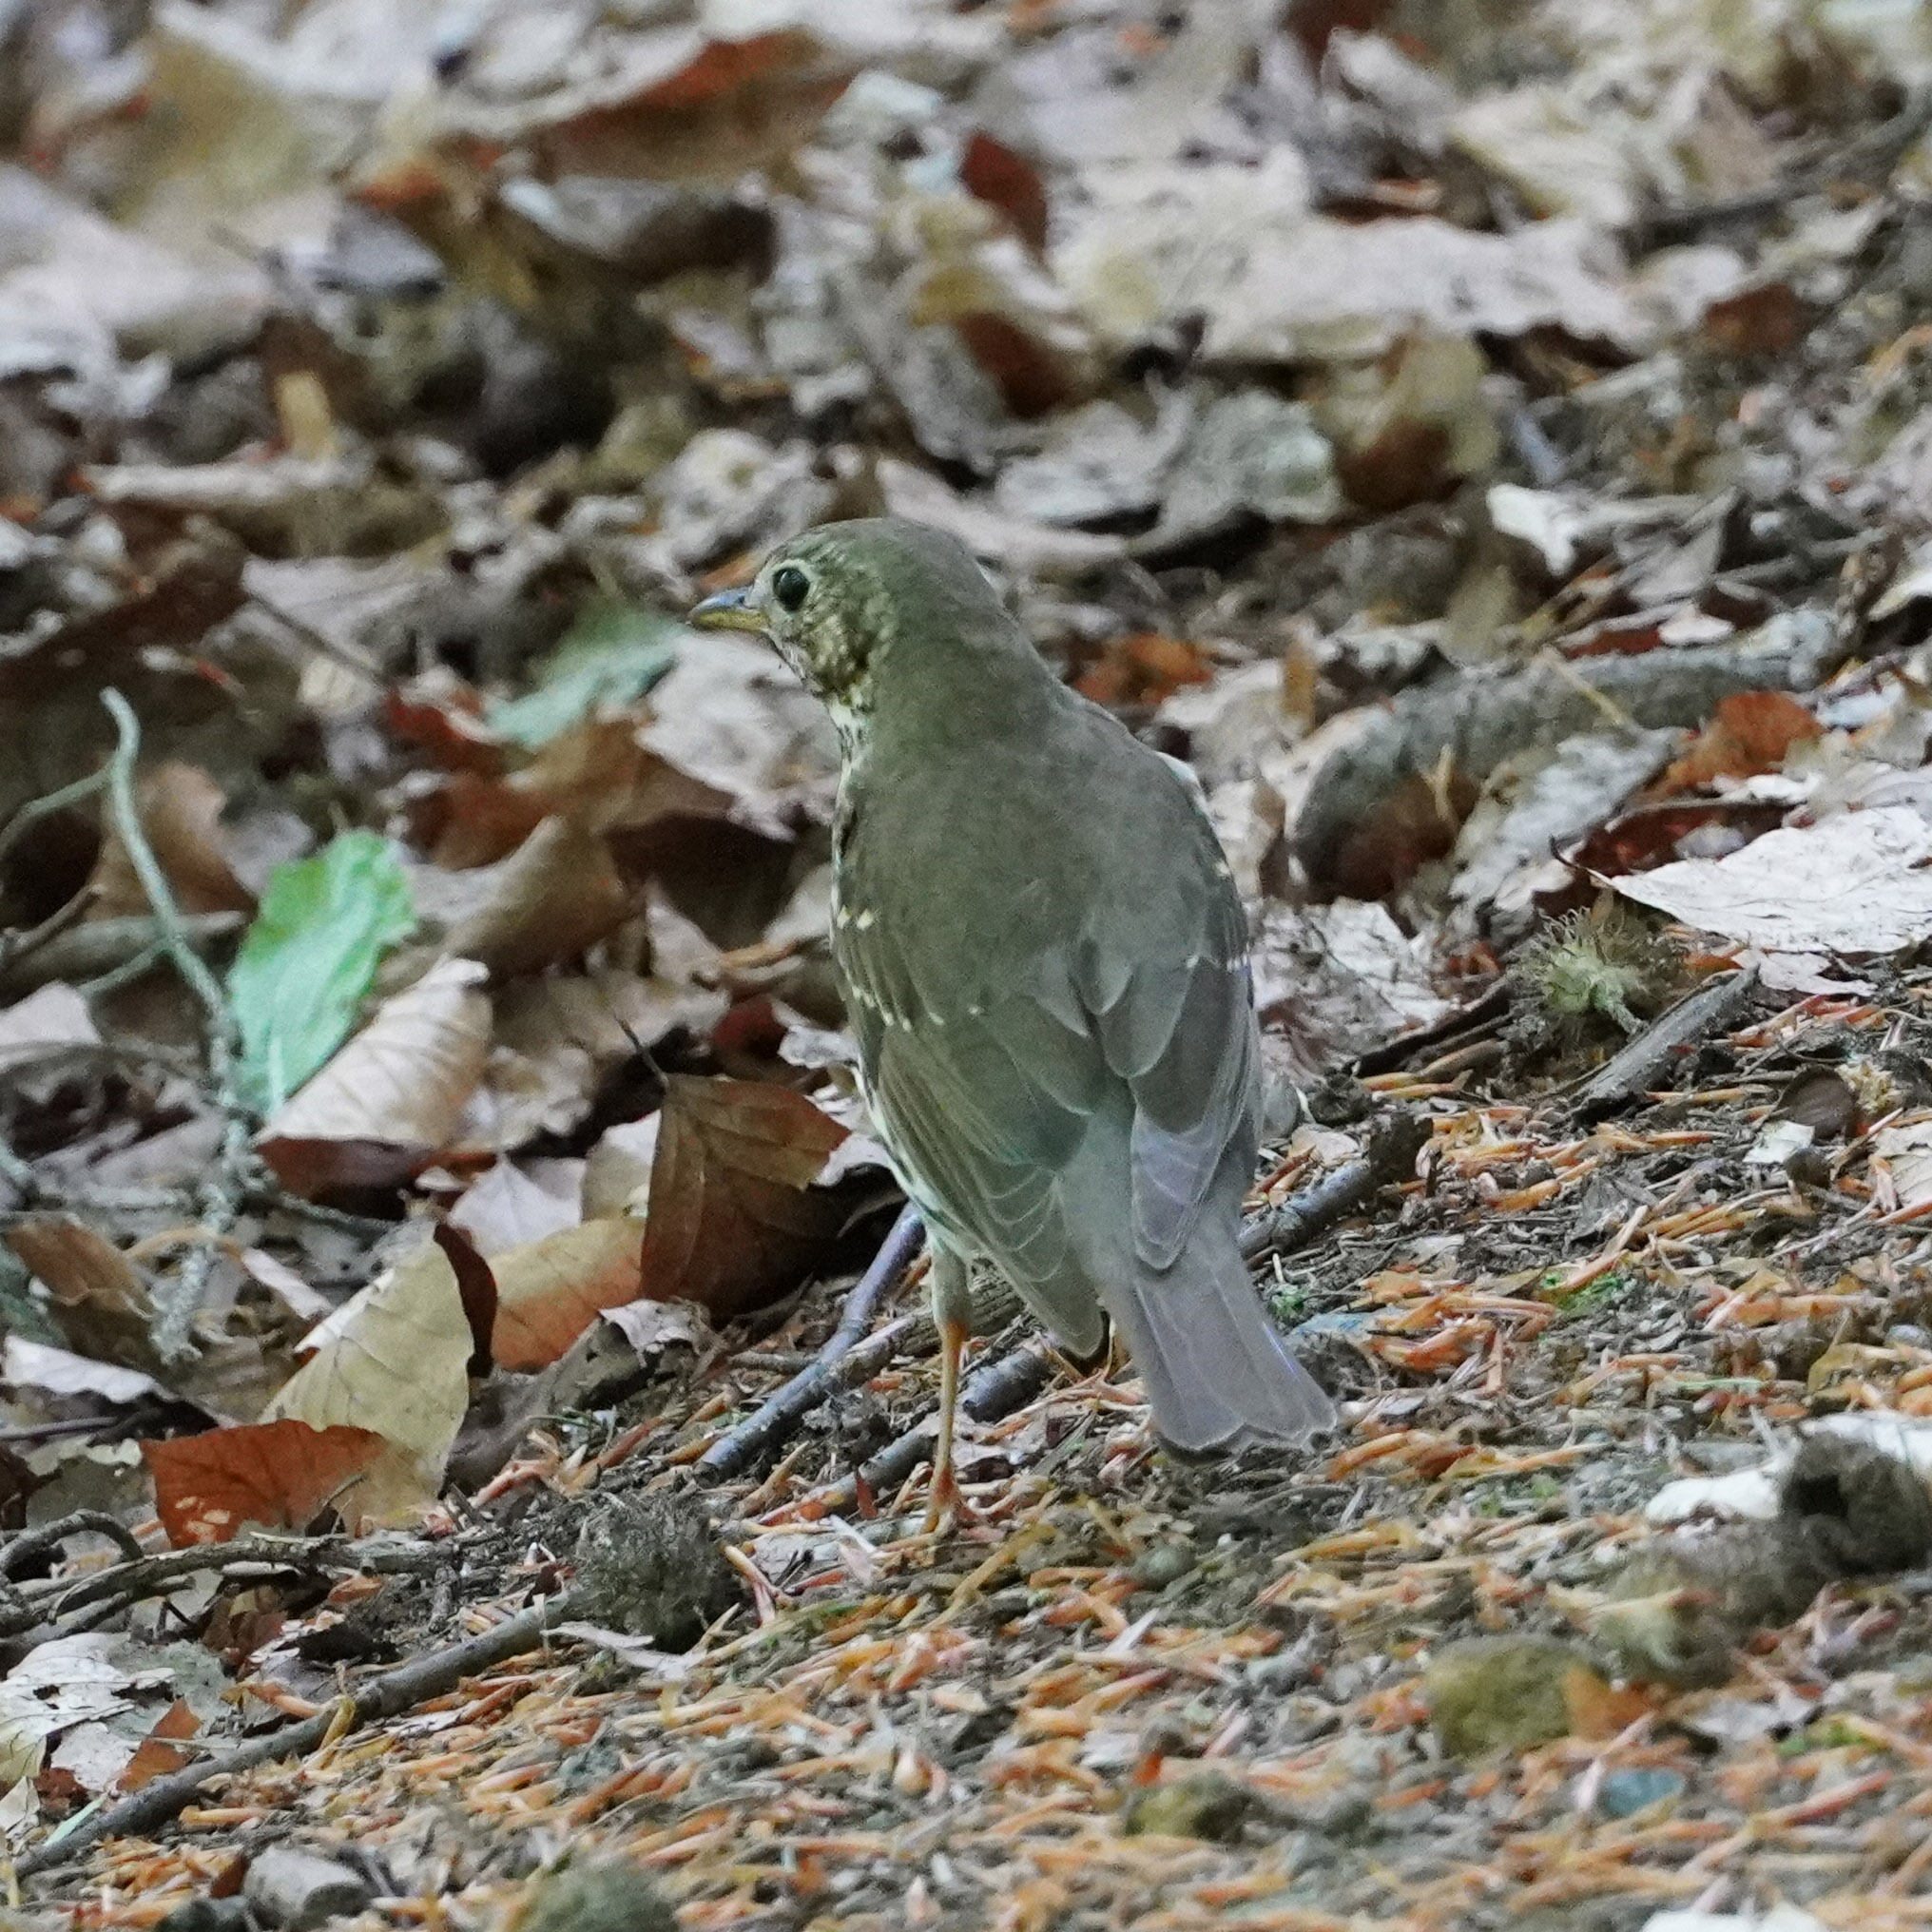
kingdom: Animalia
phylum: Chordata
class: Aves
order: Passeriformes
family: Turdidae
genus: Turdus
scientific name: Turdus philomelos
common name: Song thrush
